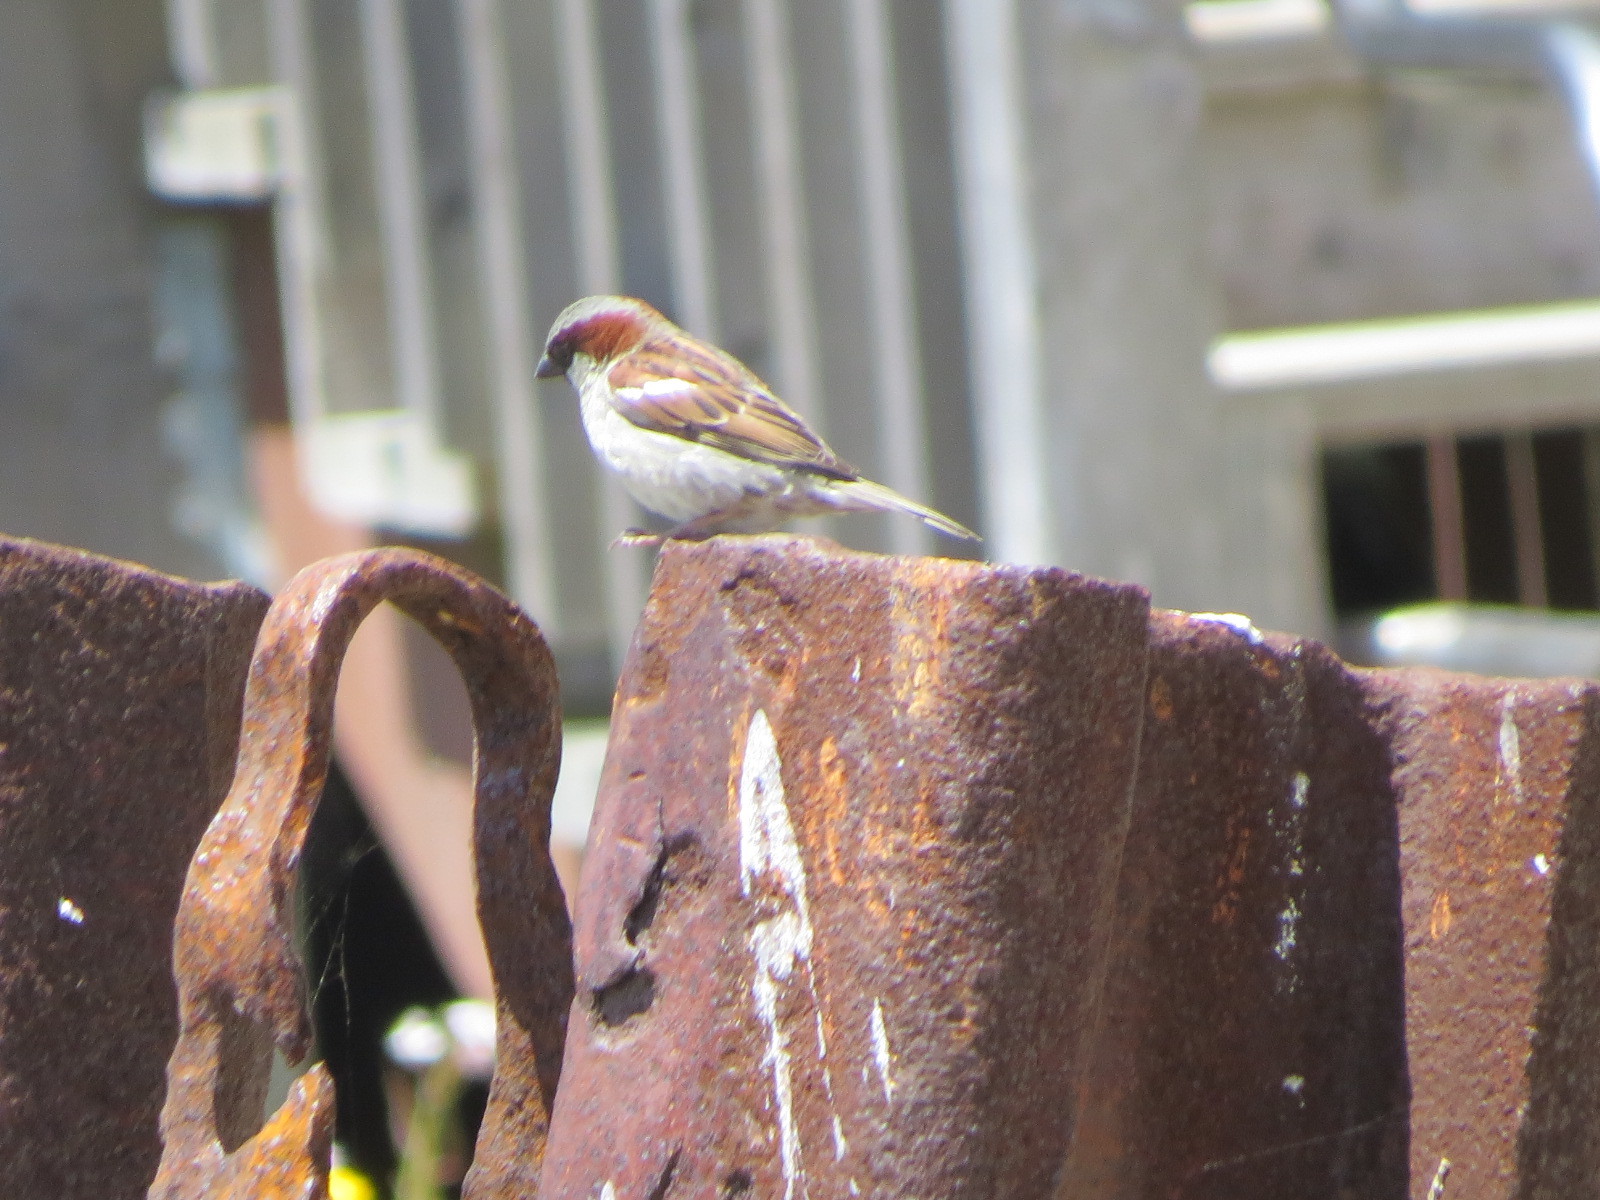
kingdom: Animalia
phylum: Chordata
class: Aves
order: Passeriformes
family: Passeridae
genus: Passer
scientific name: Passer domesticus
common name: House sparrow
